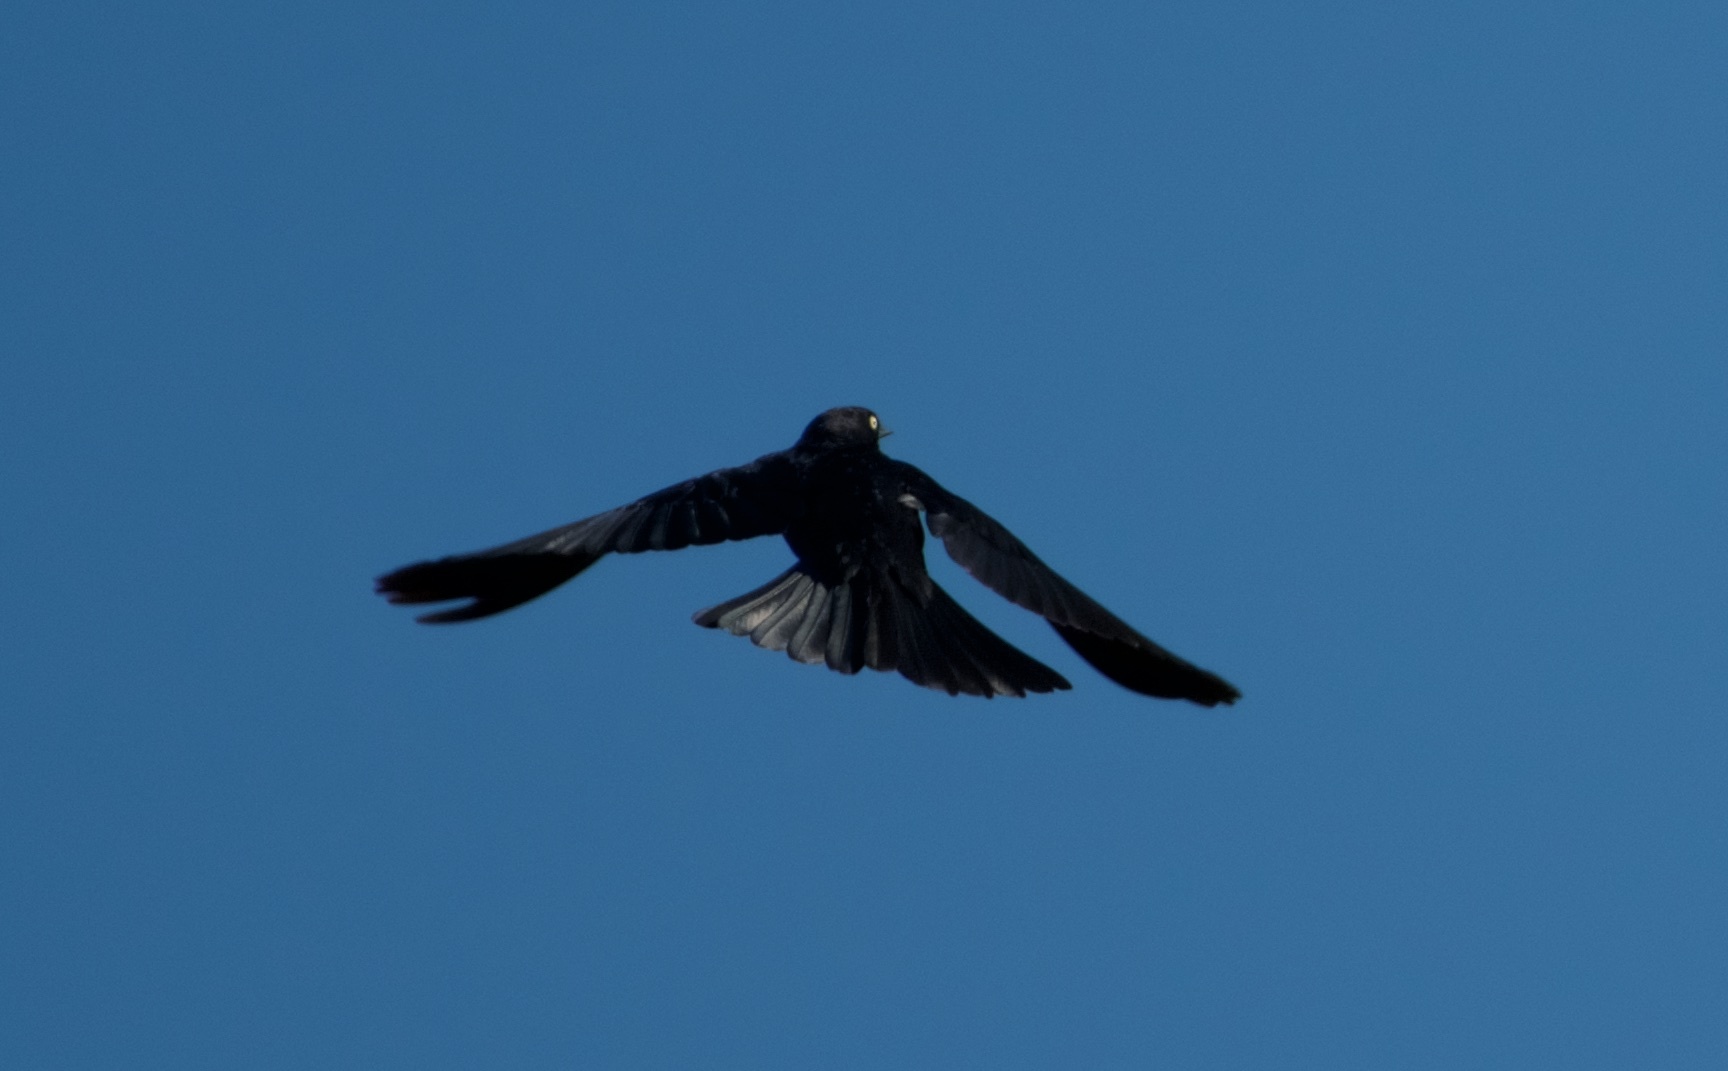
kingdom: Animalia
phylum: Chordata
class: Aves
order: Passeriformes
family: Icteridae
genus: Euphagus
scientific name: Euphagus cyanocephalus
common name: Brewer's blackbird
